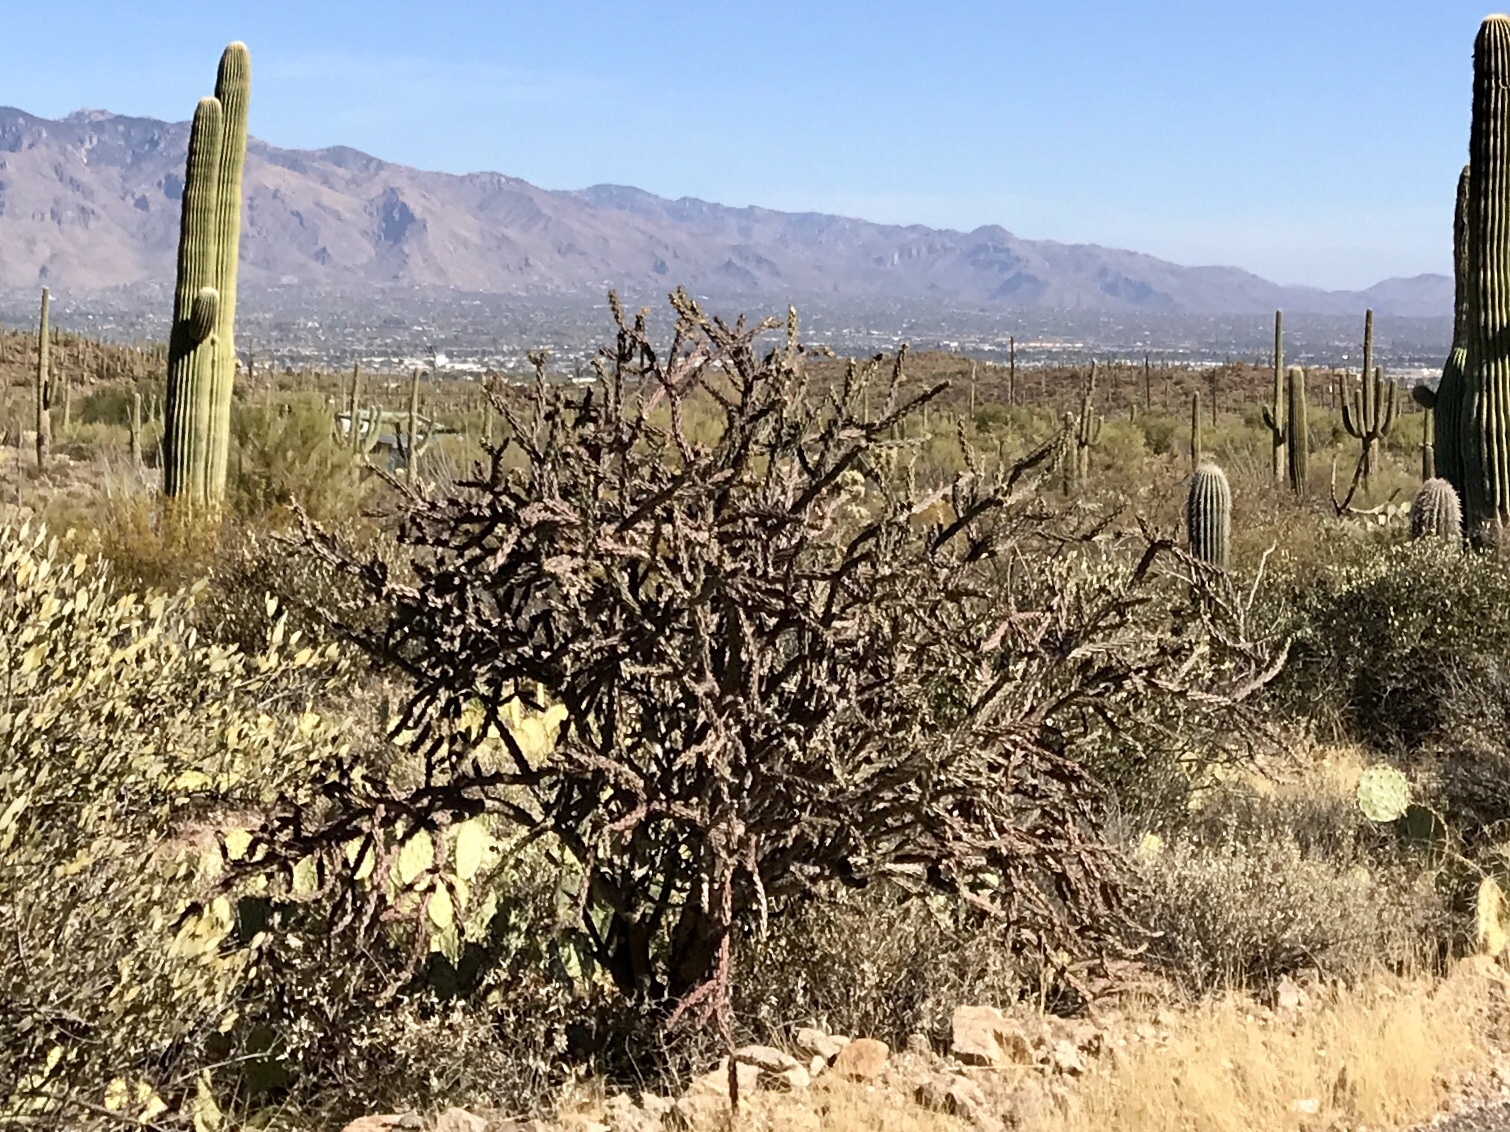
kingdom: Plantae
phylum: Tracheophyta
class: Magnoliopsida
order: Caryophyllales
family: Cactaceae
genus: Cylindropuntia
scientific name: Cylindropuntia thurberi
